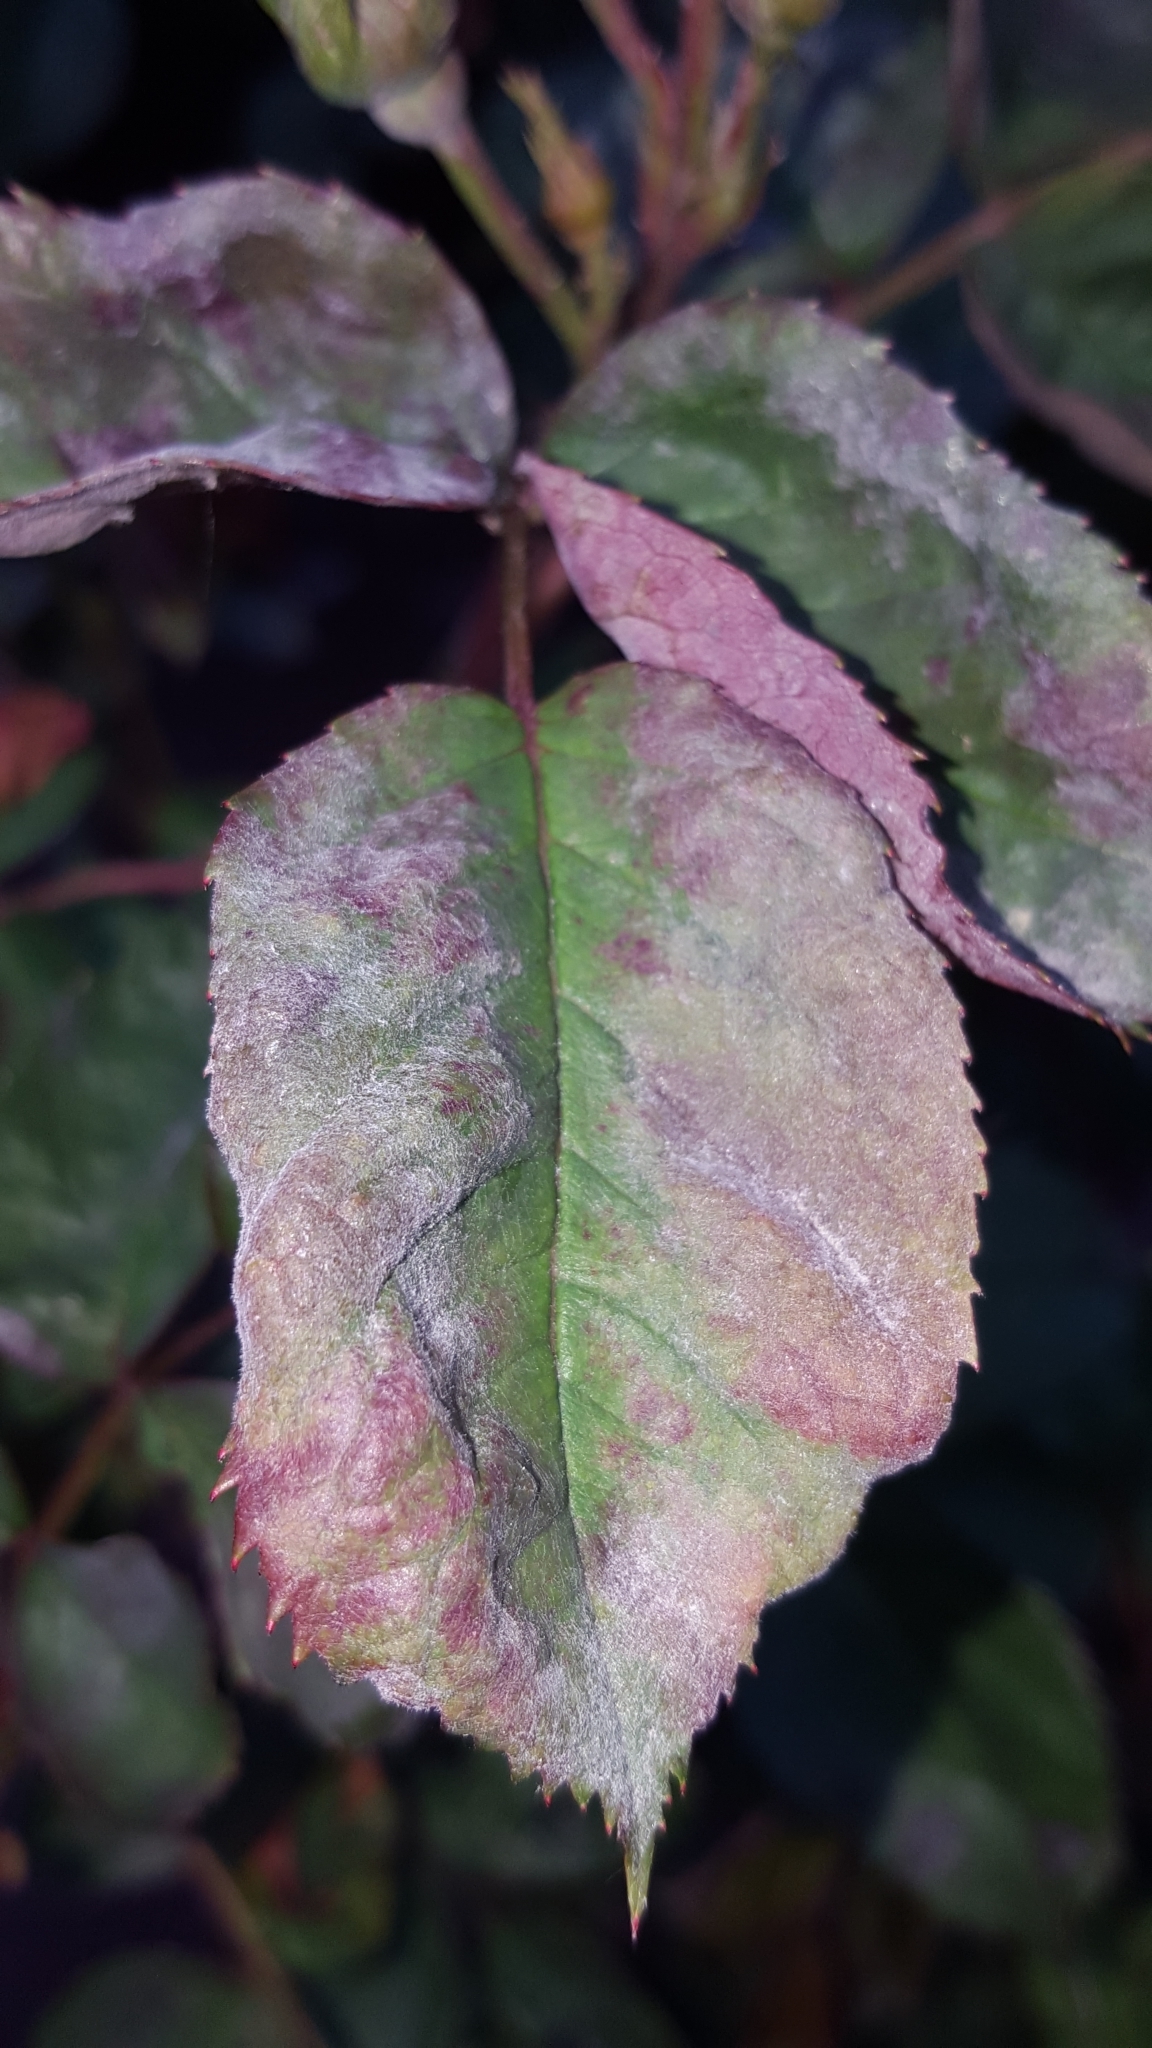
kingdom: Fungi
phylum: Ascomycota
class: Leotiomycetes
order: Helotiales
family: Erysiphaceae
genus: Podosphaera
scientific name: Podosphaera pannosa
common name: Rose mildew
